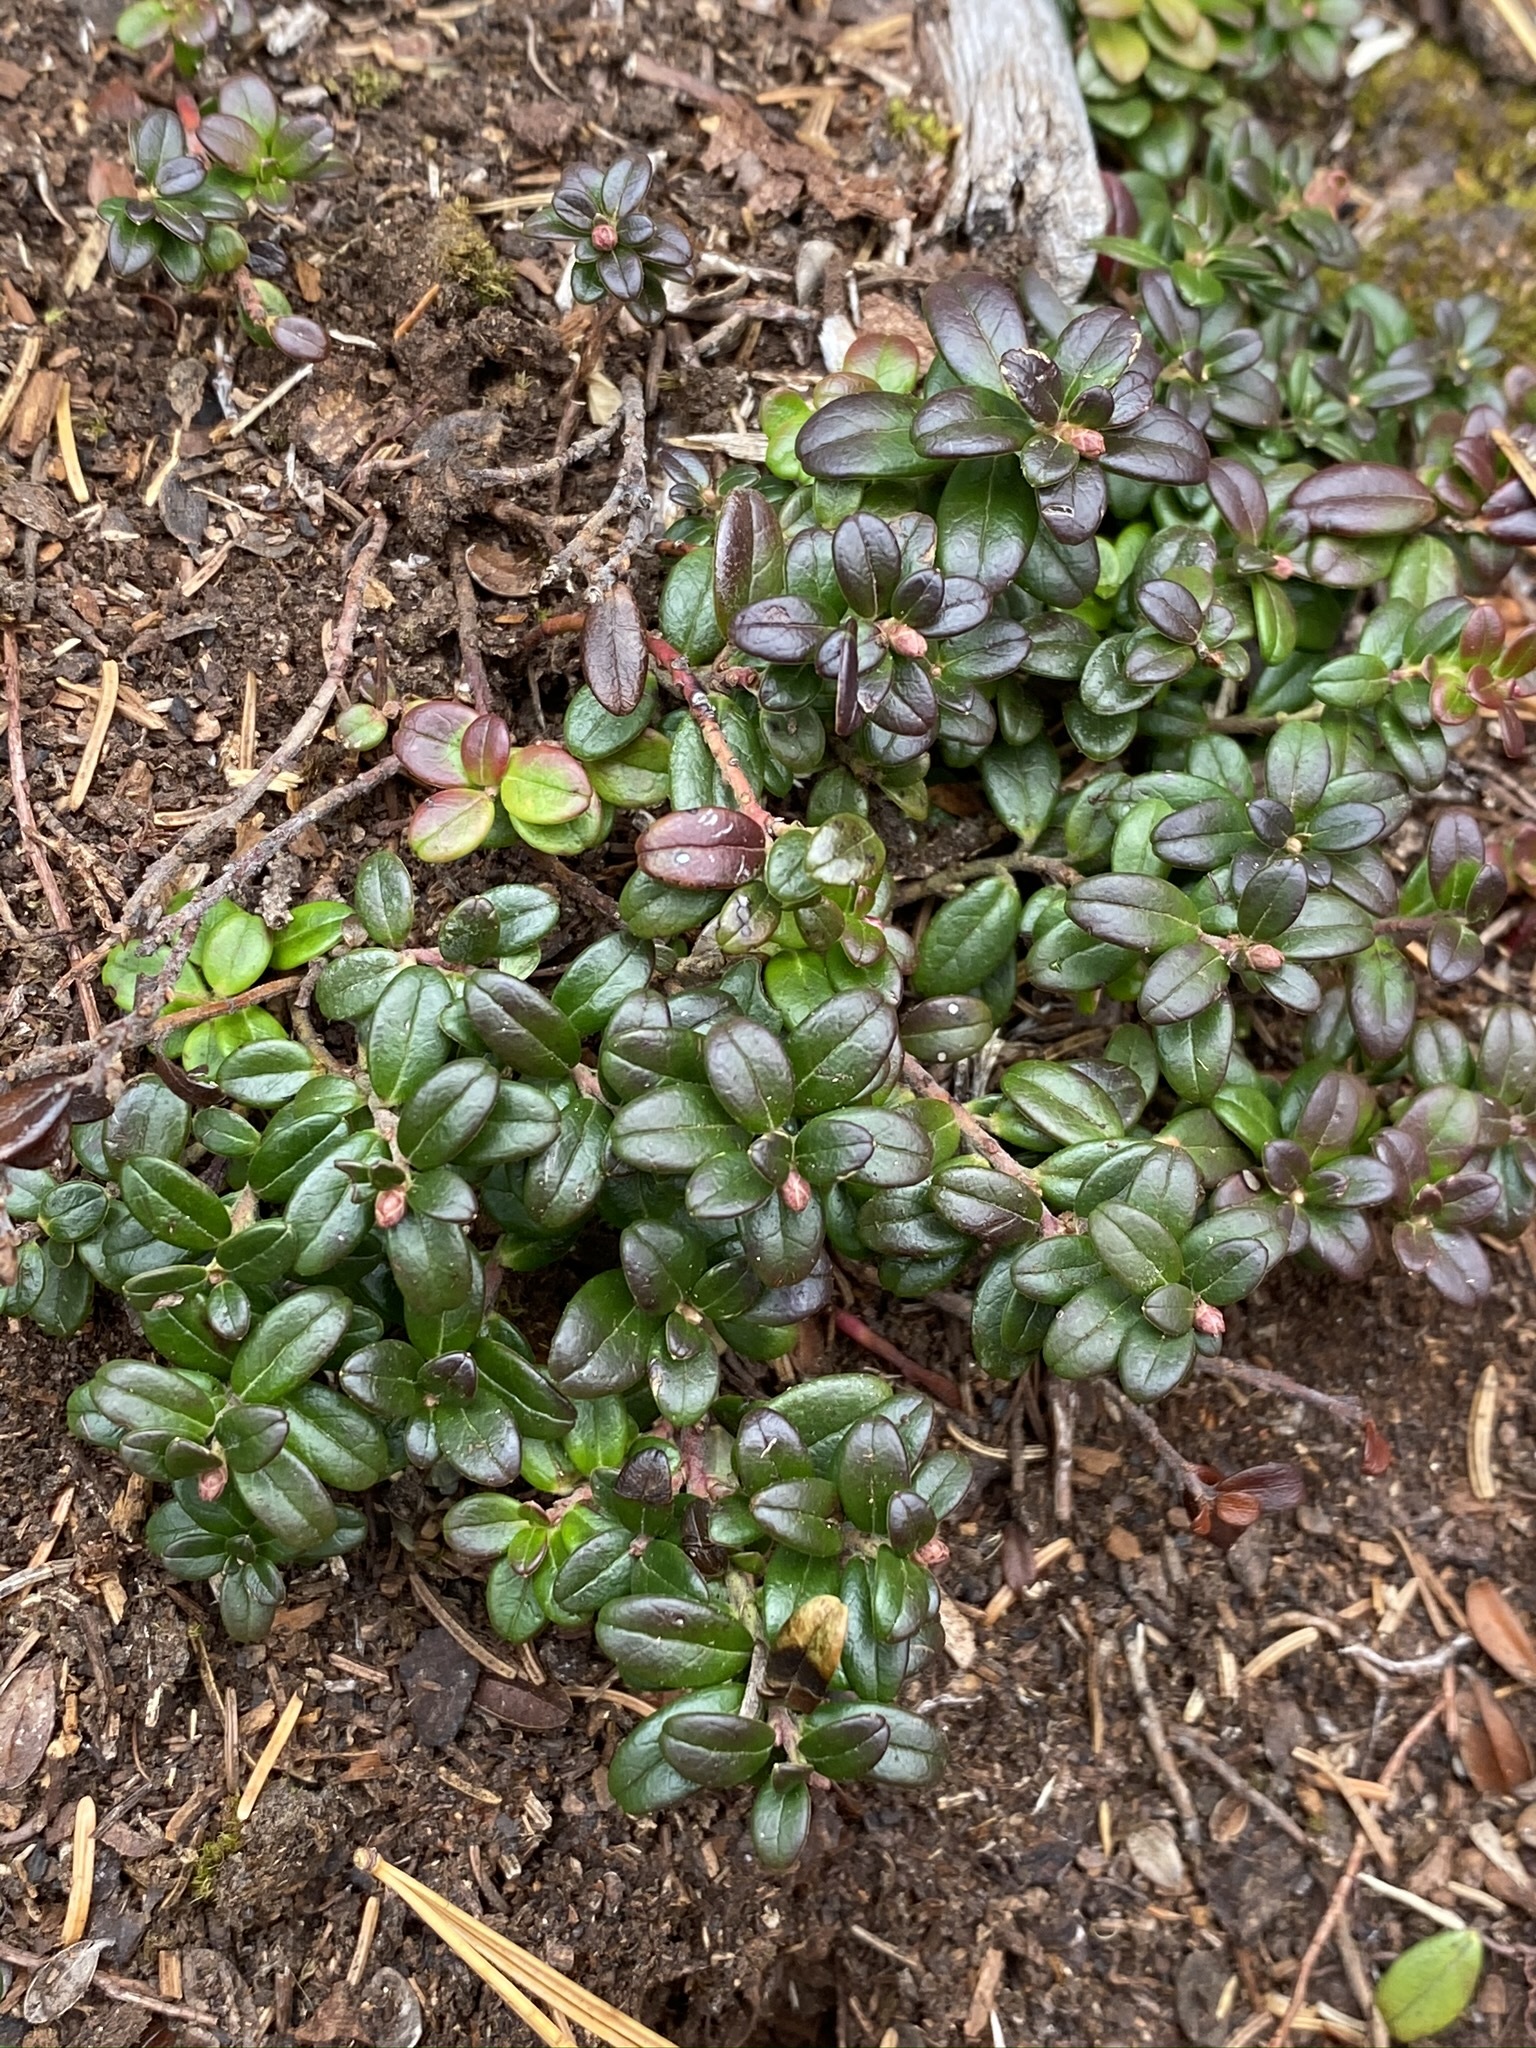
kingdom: Plantae
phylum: Tracheophyta
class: Magnoliopsida
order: Ericales
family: Ericaceae
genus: Vaccinium
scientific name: Vaccinium vitis-idaea
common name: Cowberry
